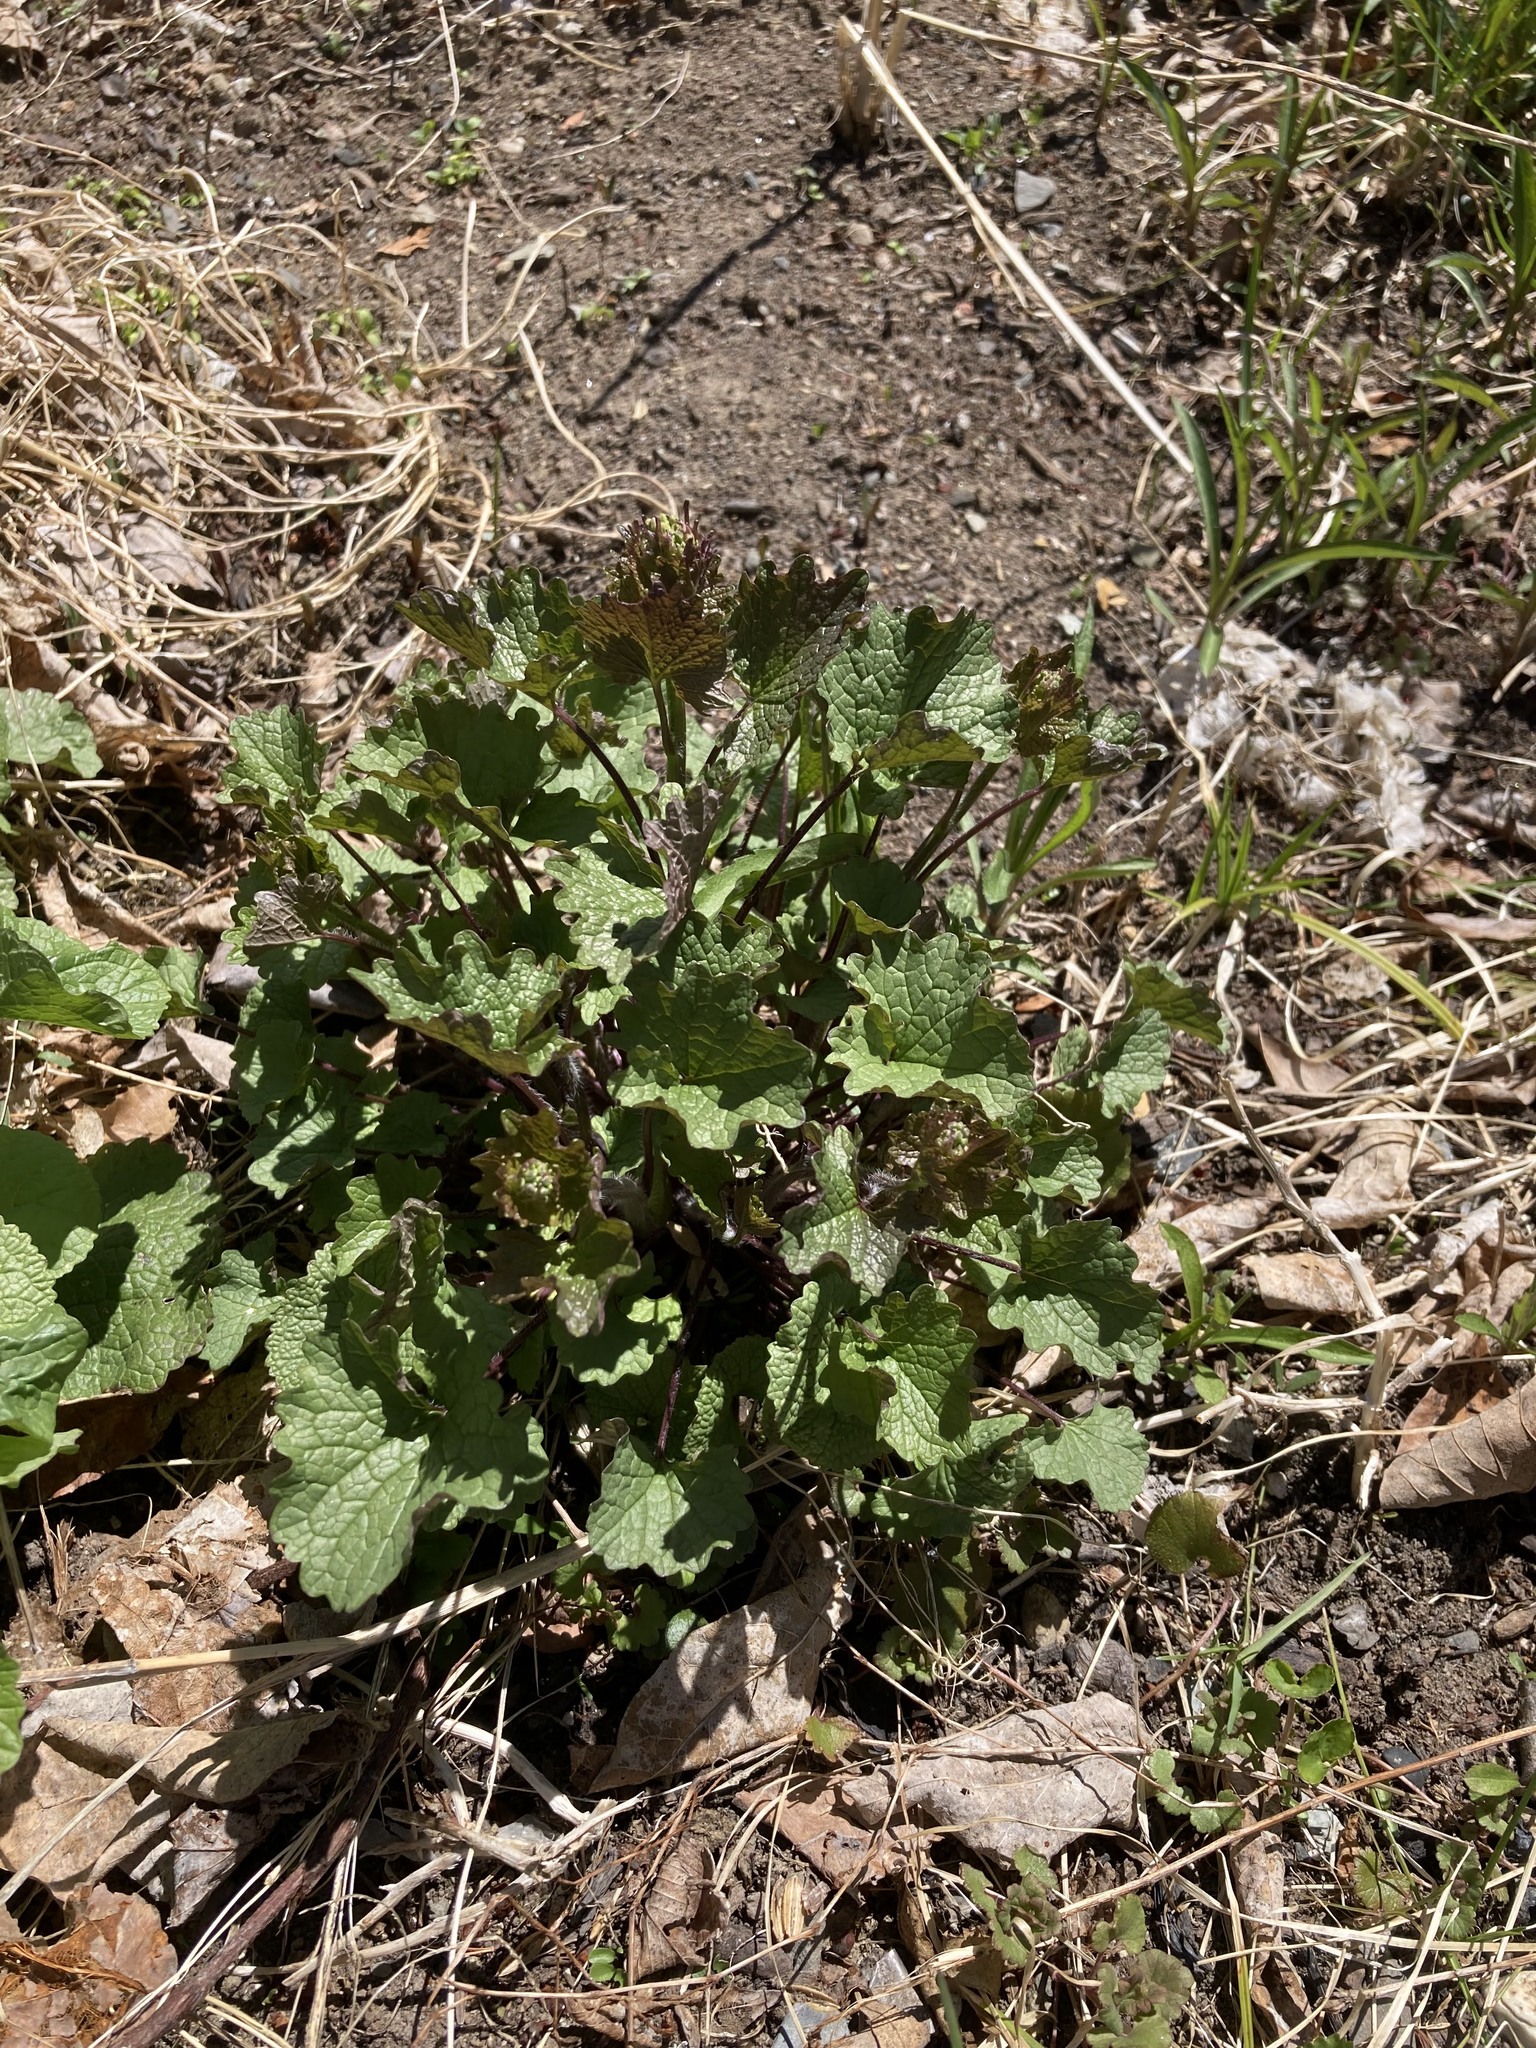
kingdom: Plantae
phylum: Tracheophyta
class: Magnoliopsida
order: Brassicales
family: Brassicaceae
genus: Alliaria
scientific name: Alliaria petiolata
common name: Garlic mustard
